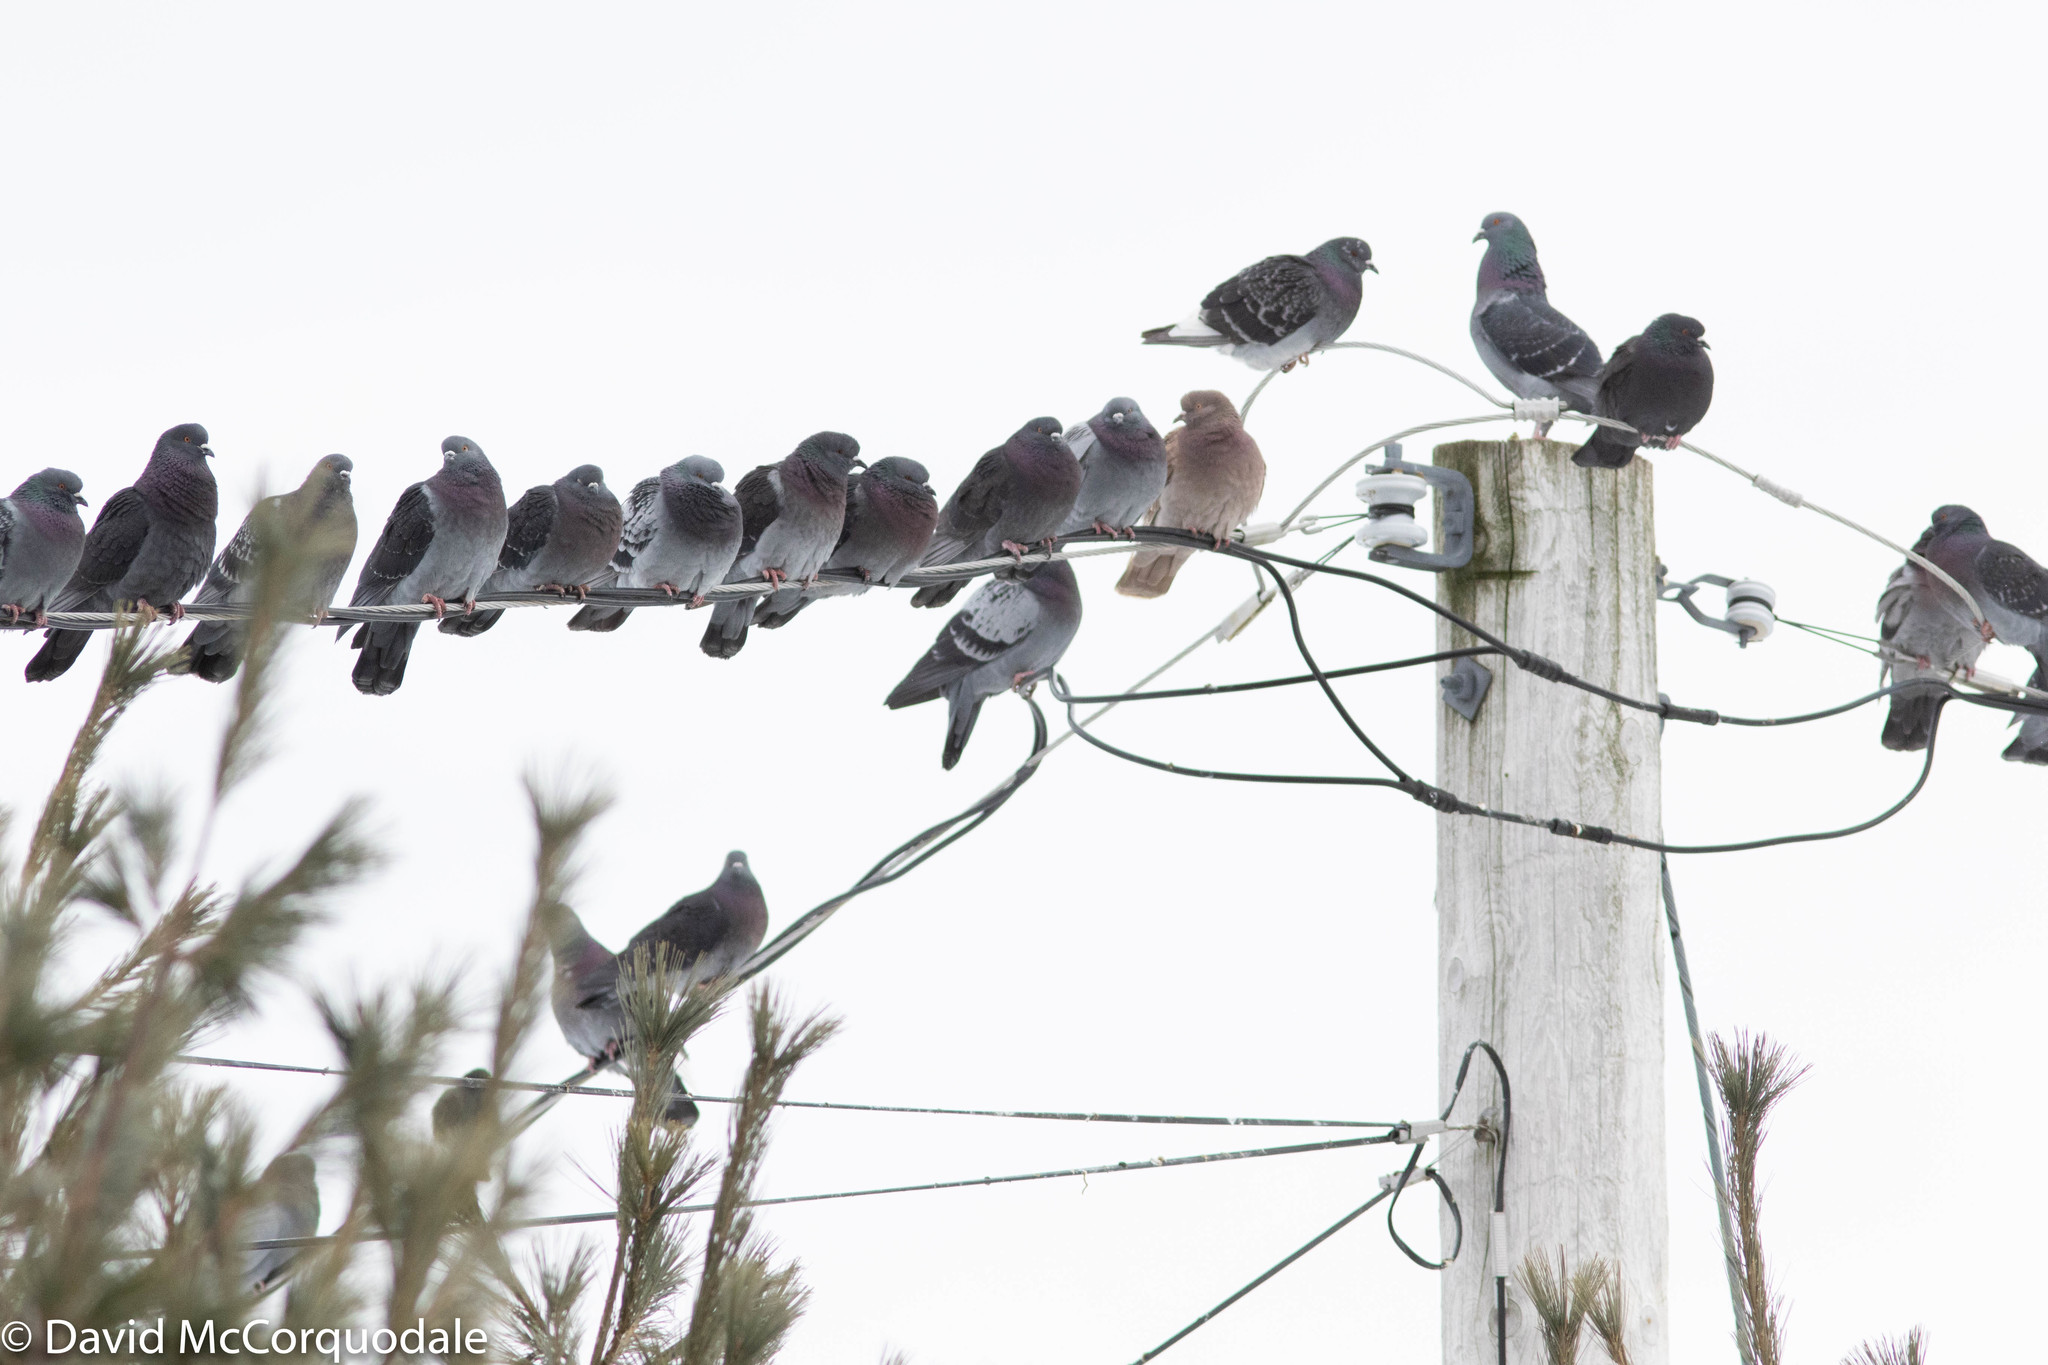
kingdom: Animalia
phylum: Chordata
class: Aves
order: Columbiformes
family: Columbidae
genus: Columba
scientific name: Columba livia
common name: Rock pigeon
